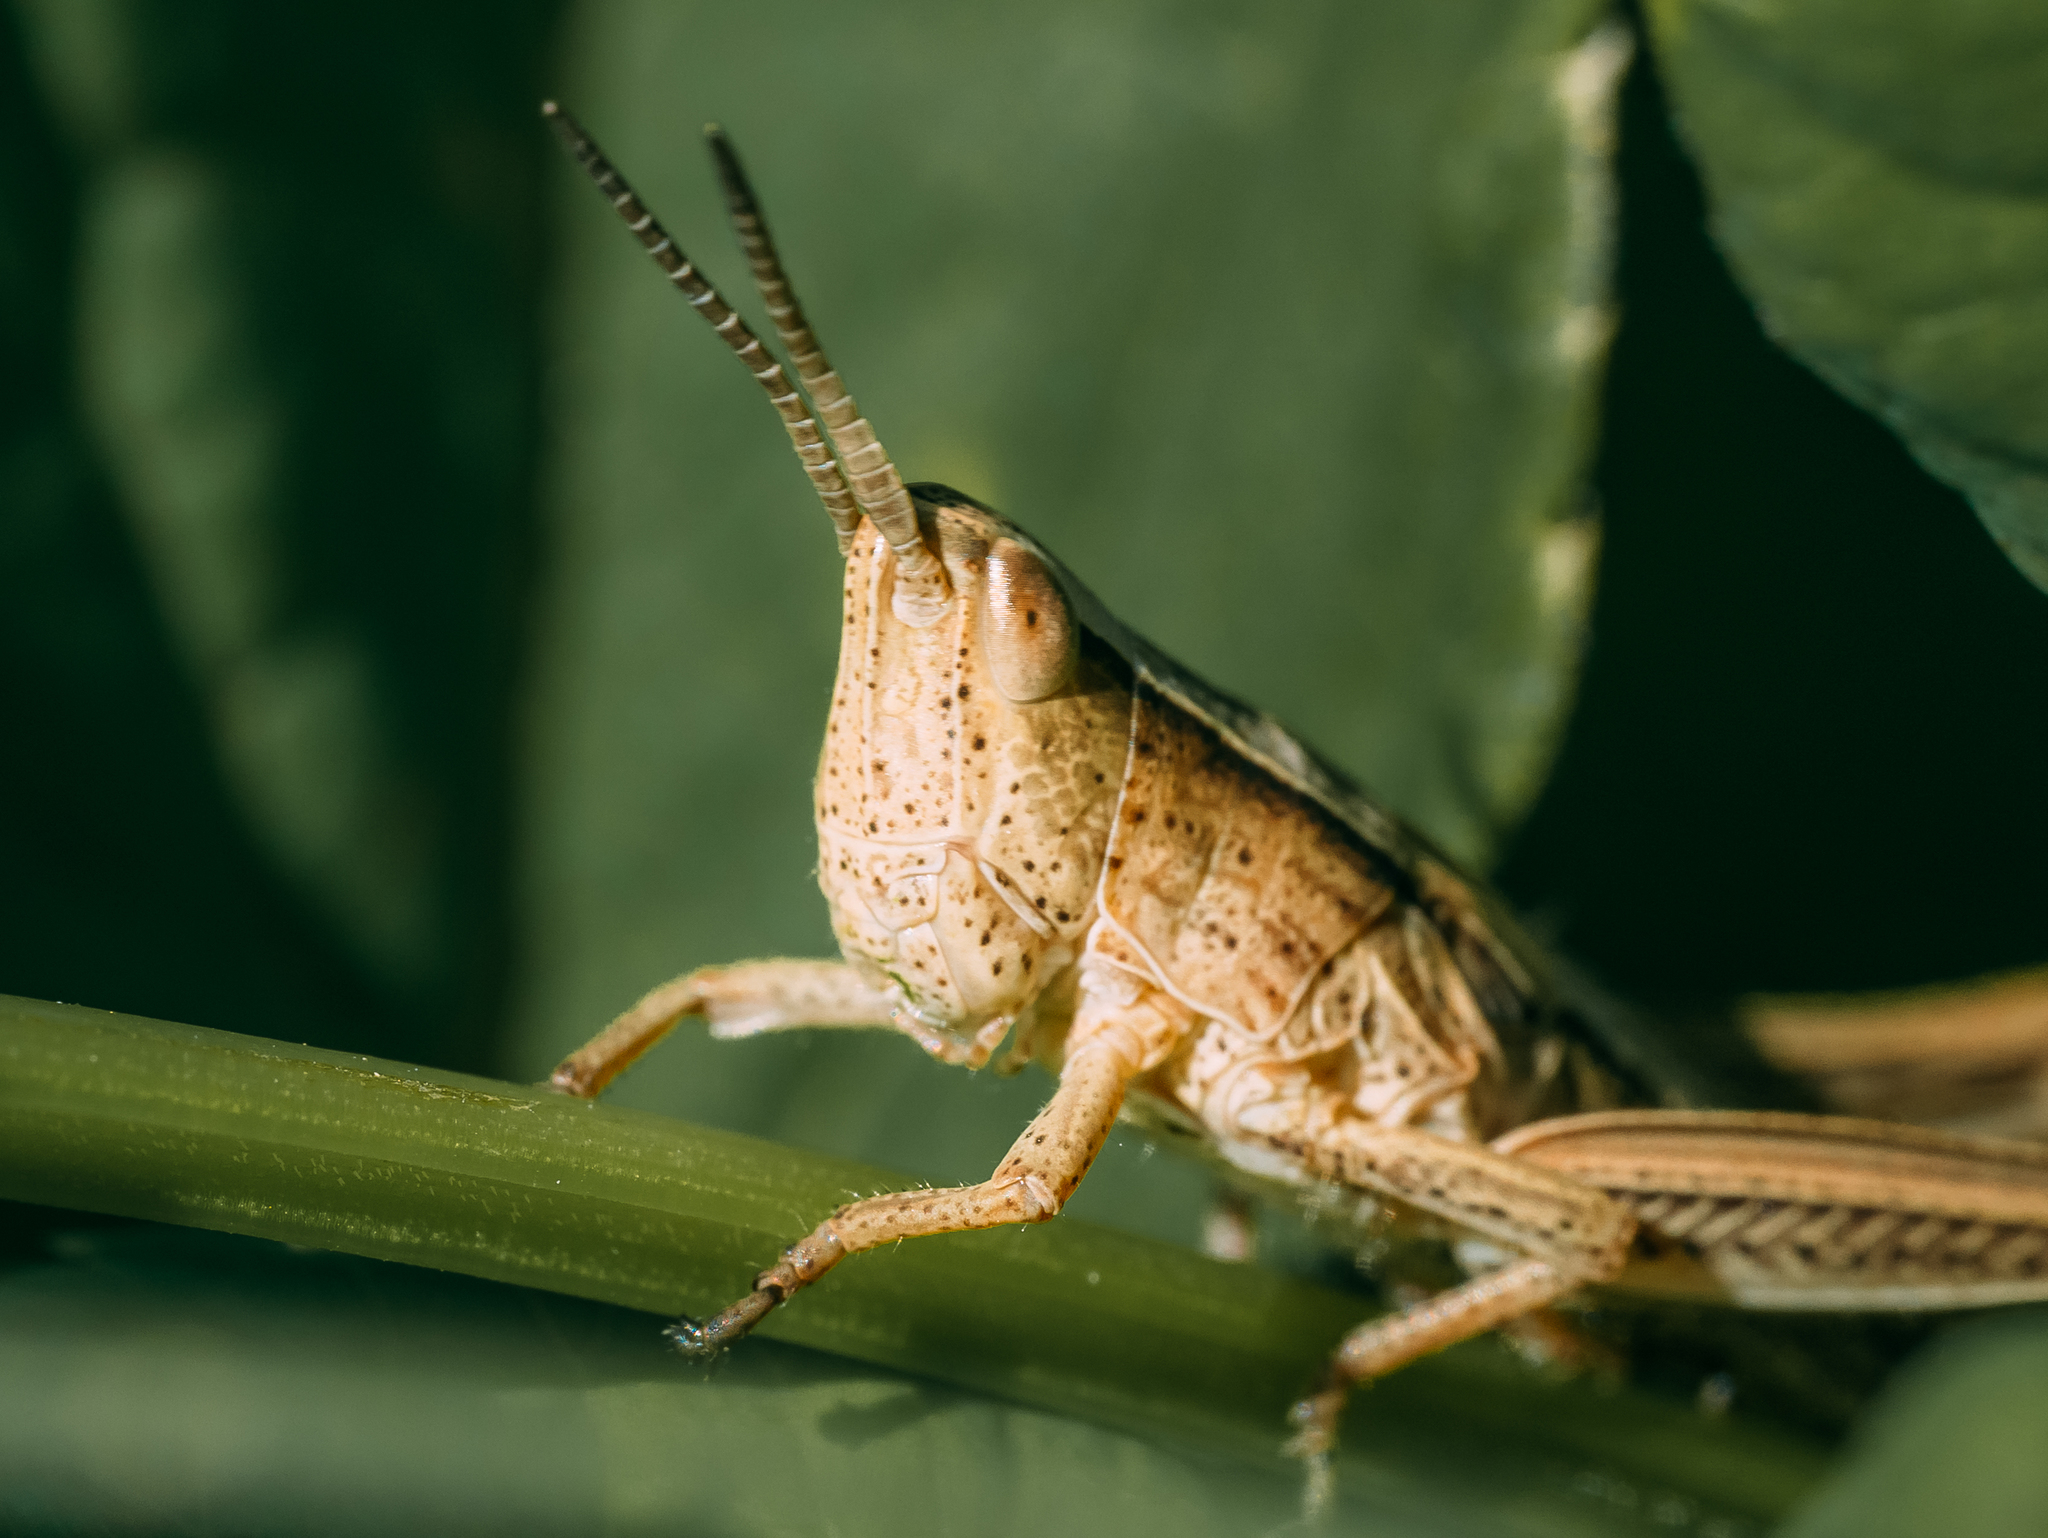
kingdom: Animalia
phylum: Arthropoda
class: Insecta
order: Orthoptera
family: Acrididae
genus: Chrysochraon
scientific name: Chrysochraon dispar
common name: Large gold grasshopper
